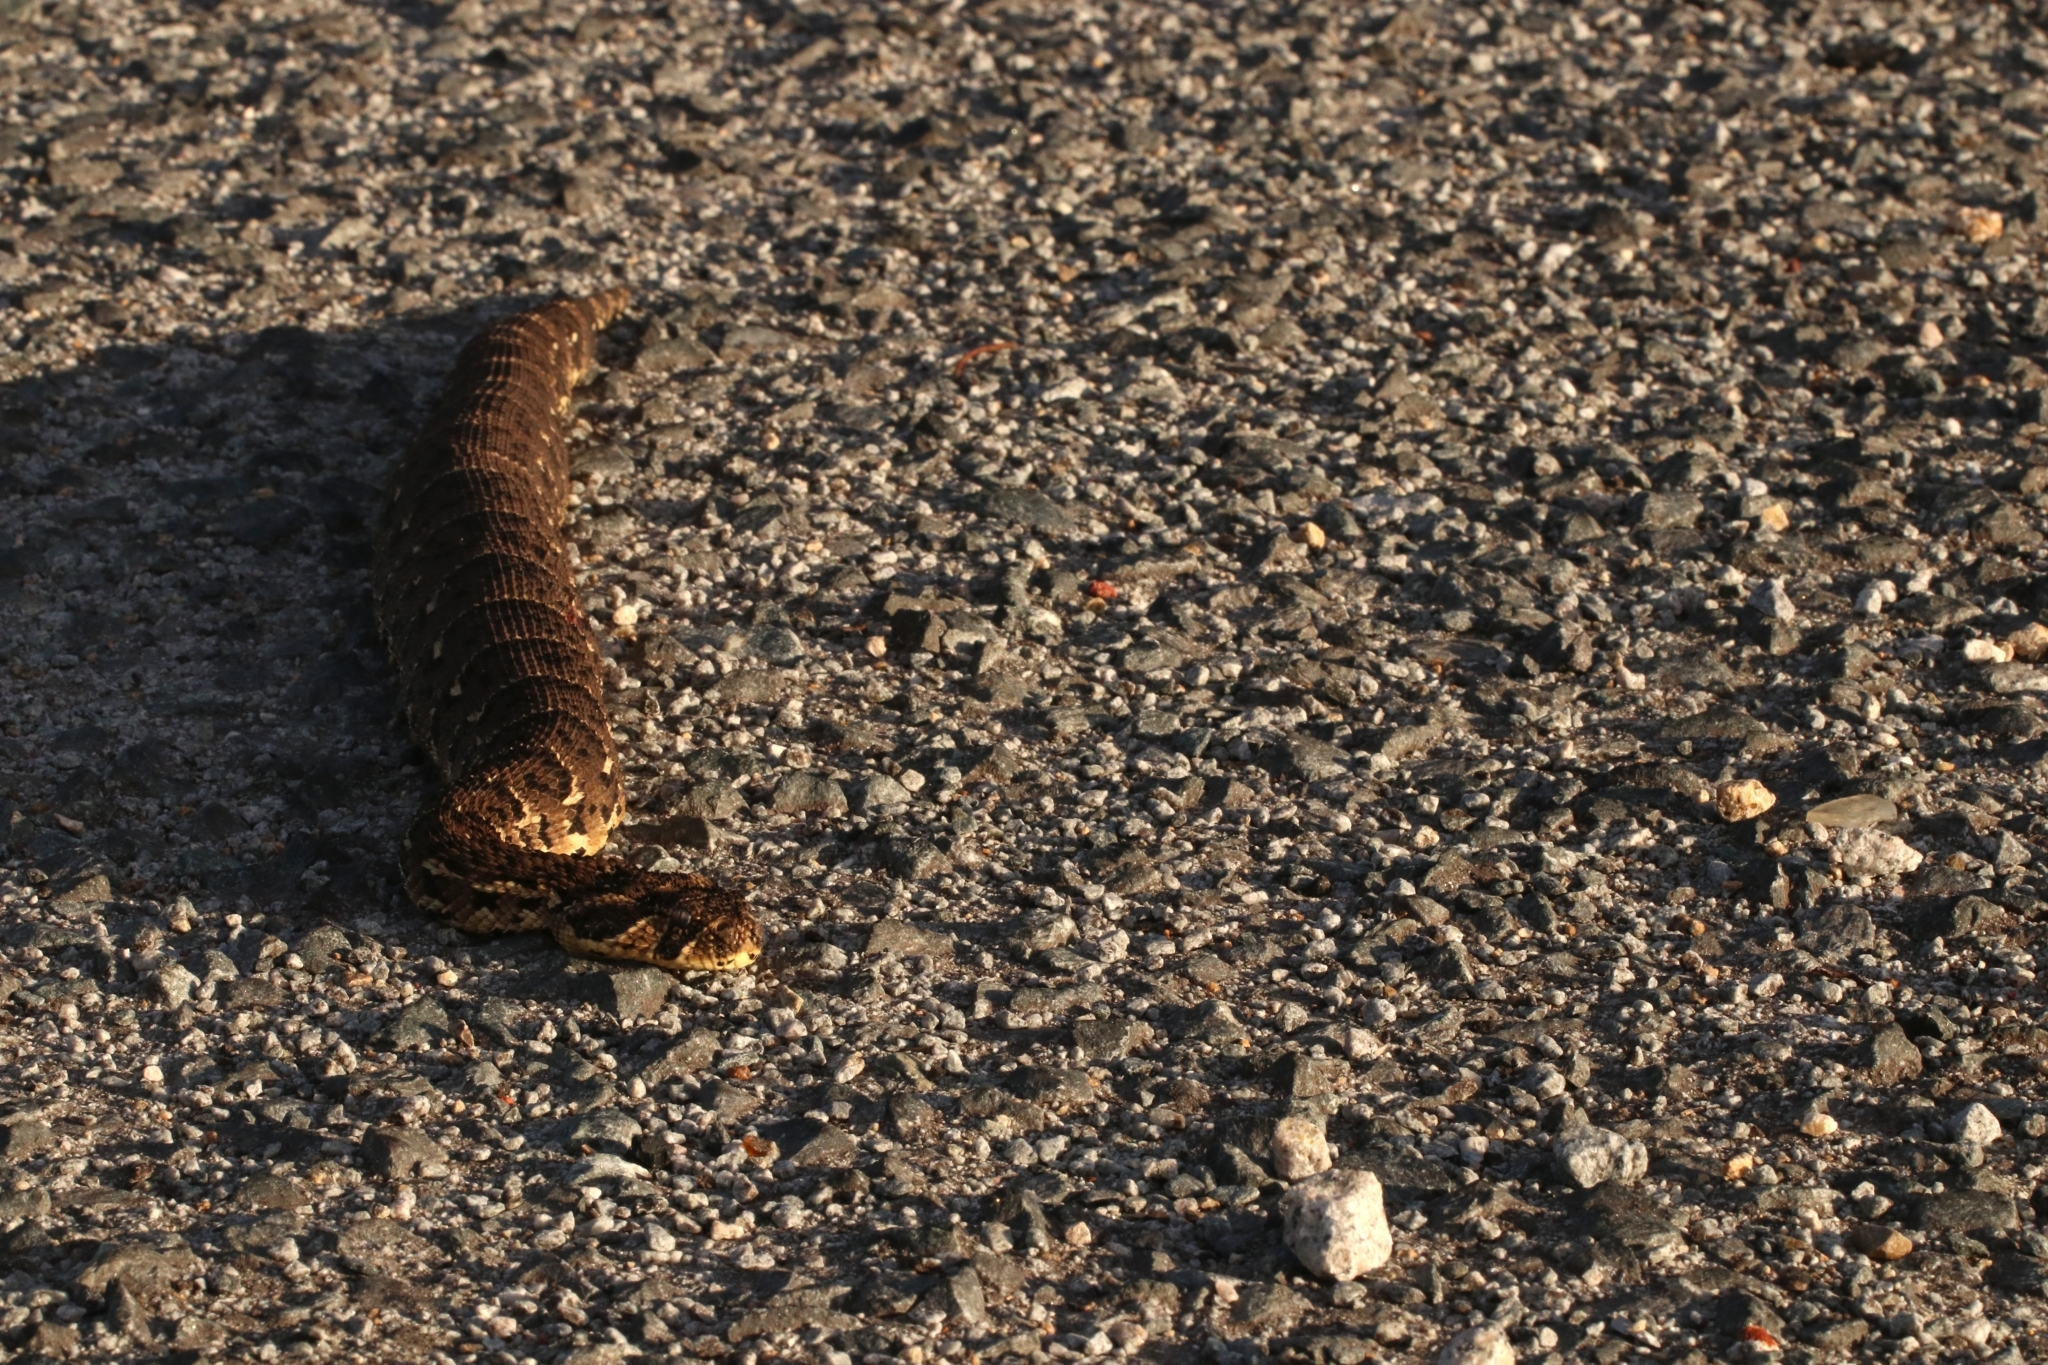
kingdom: Animalia
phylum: Chordata
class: Squamata
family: Viperidae
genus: Bitis
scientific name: Bitis arietans
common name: Puff adder
